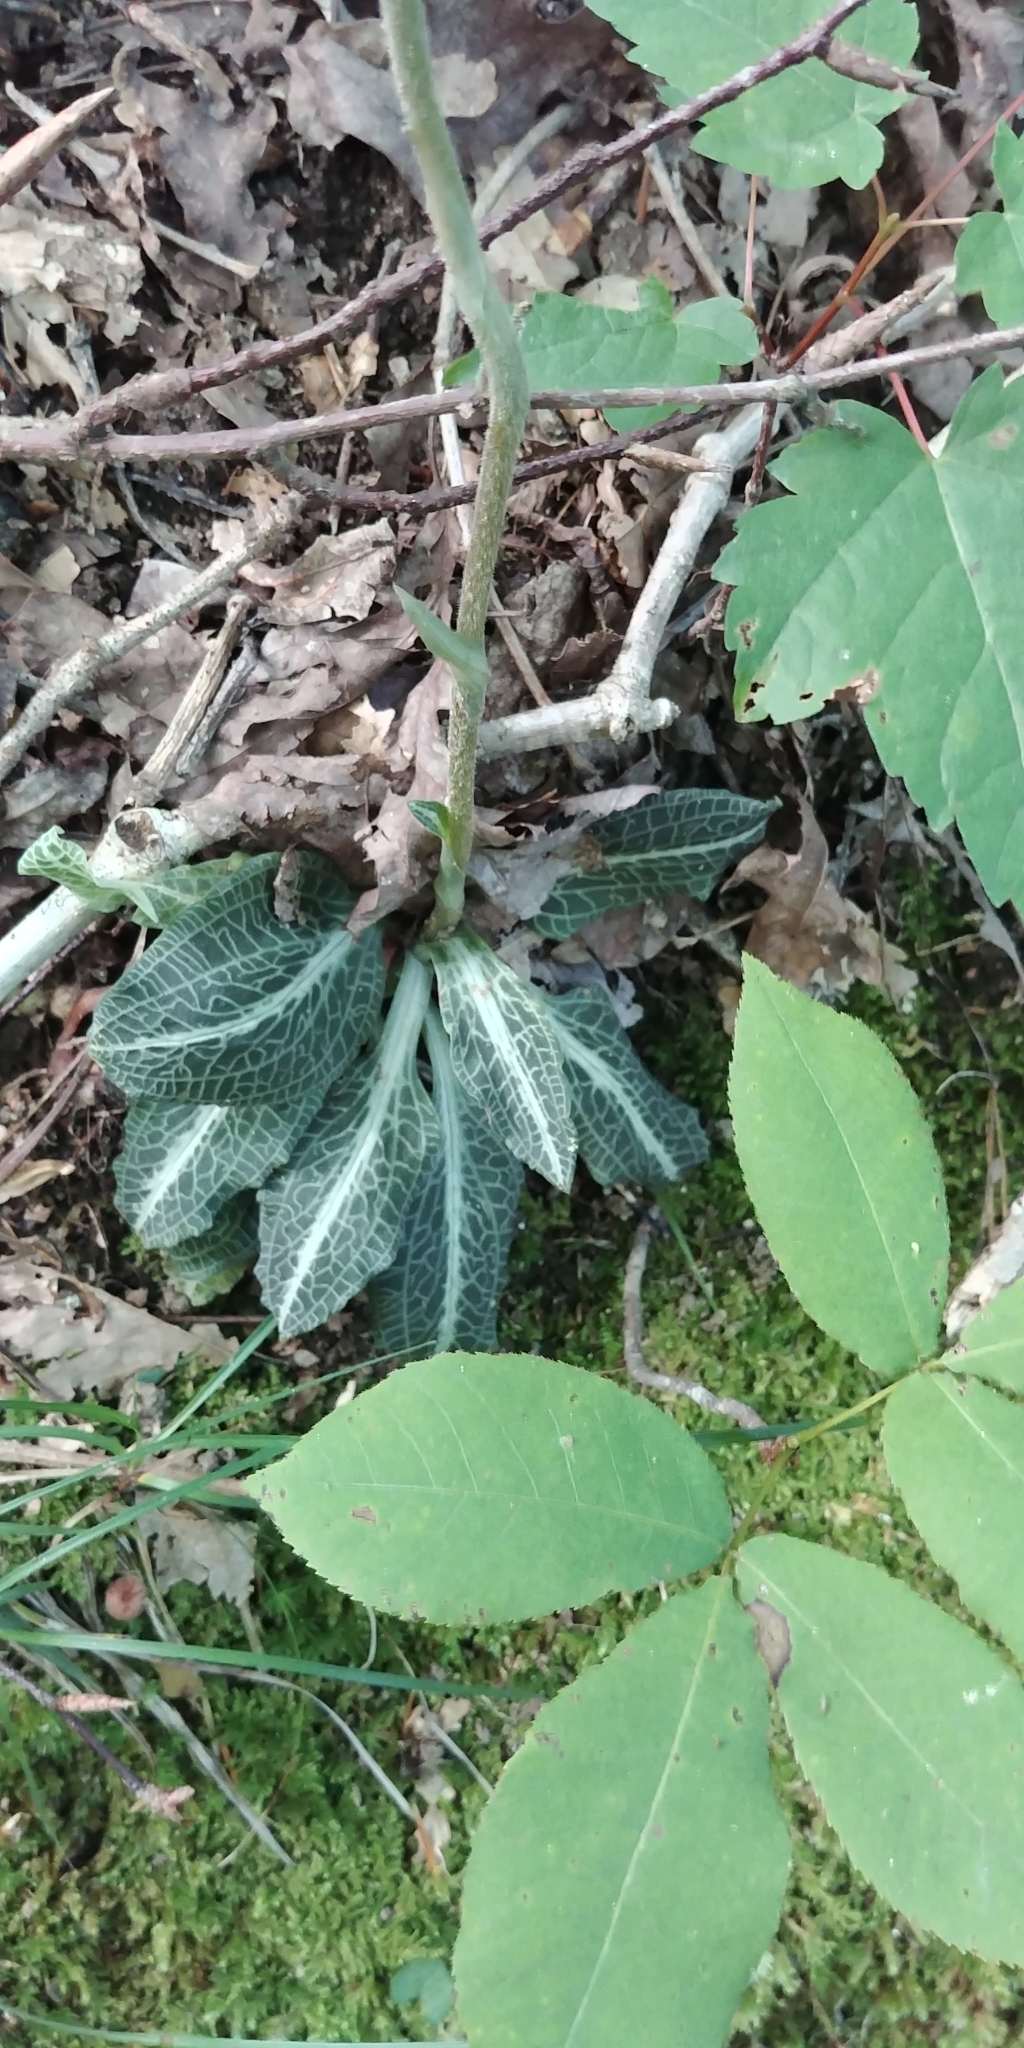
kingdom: Plantae
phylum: Tracheophyta
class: Liliopsida
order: Asparagales
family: Orchidaceae
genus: Goodyera
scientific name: Goodyera pubescens
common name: Downy rattlesnake-plantain
